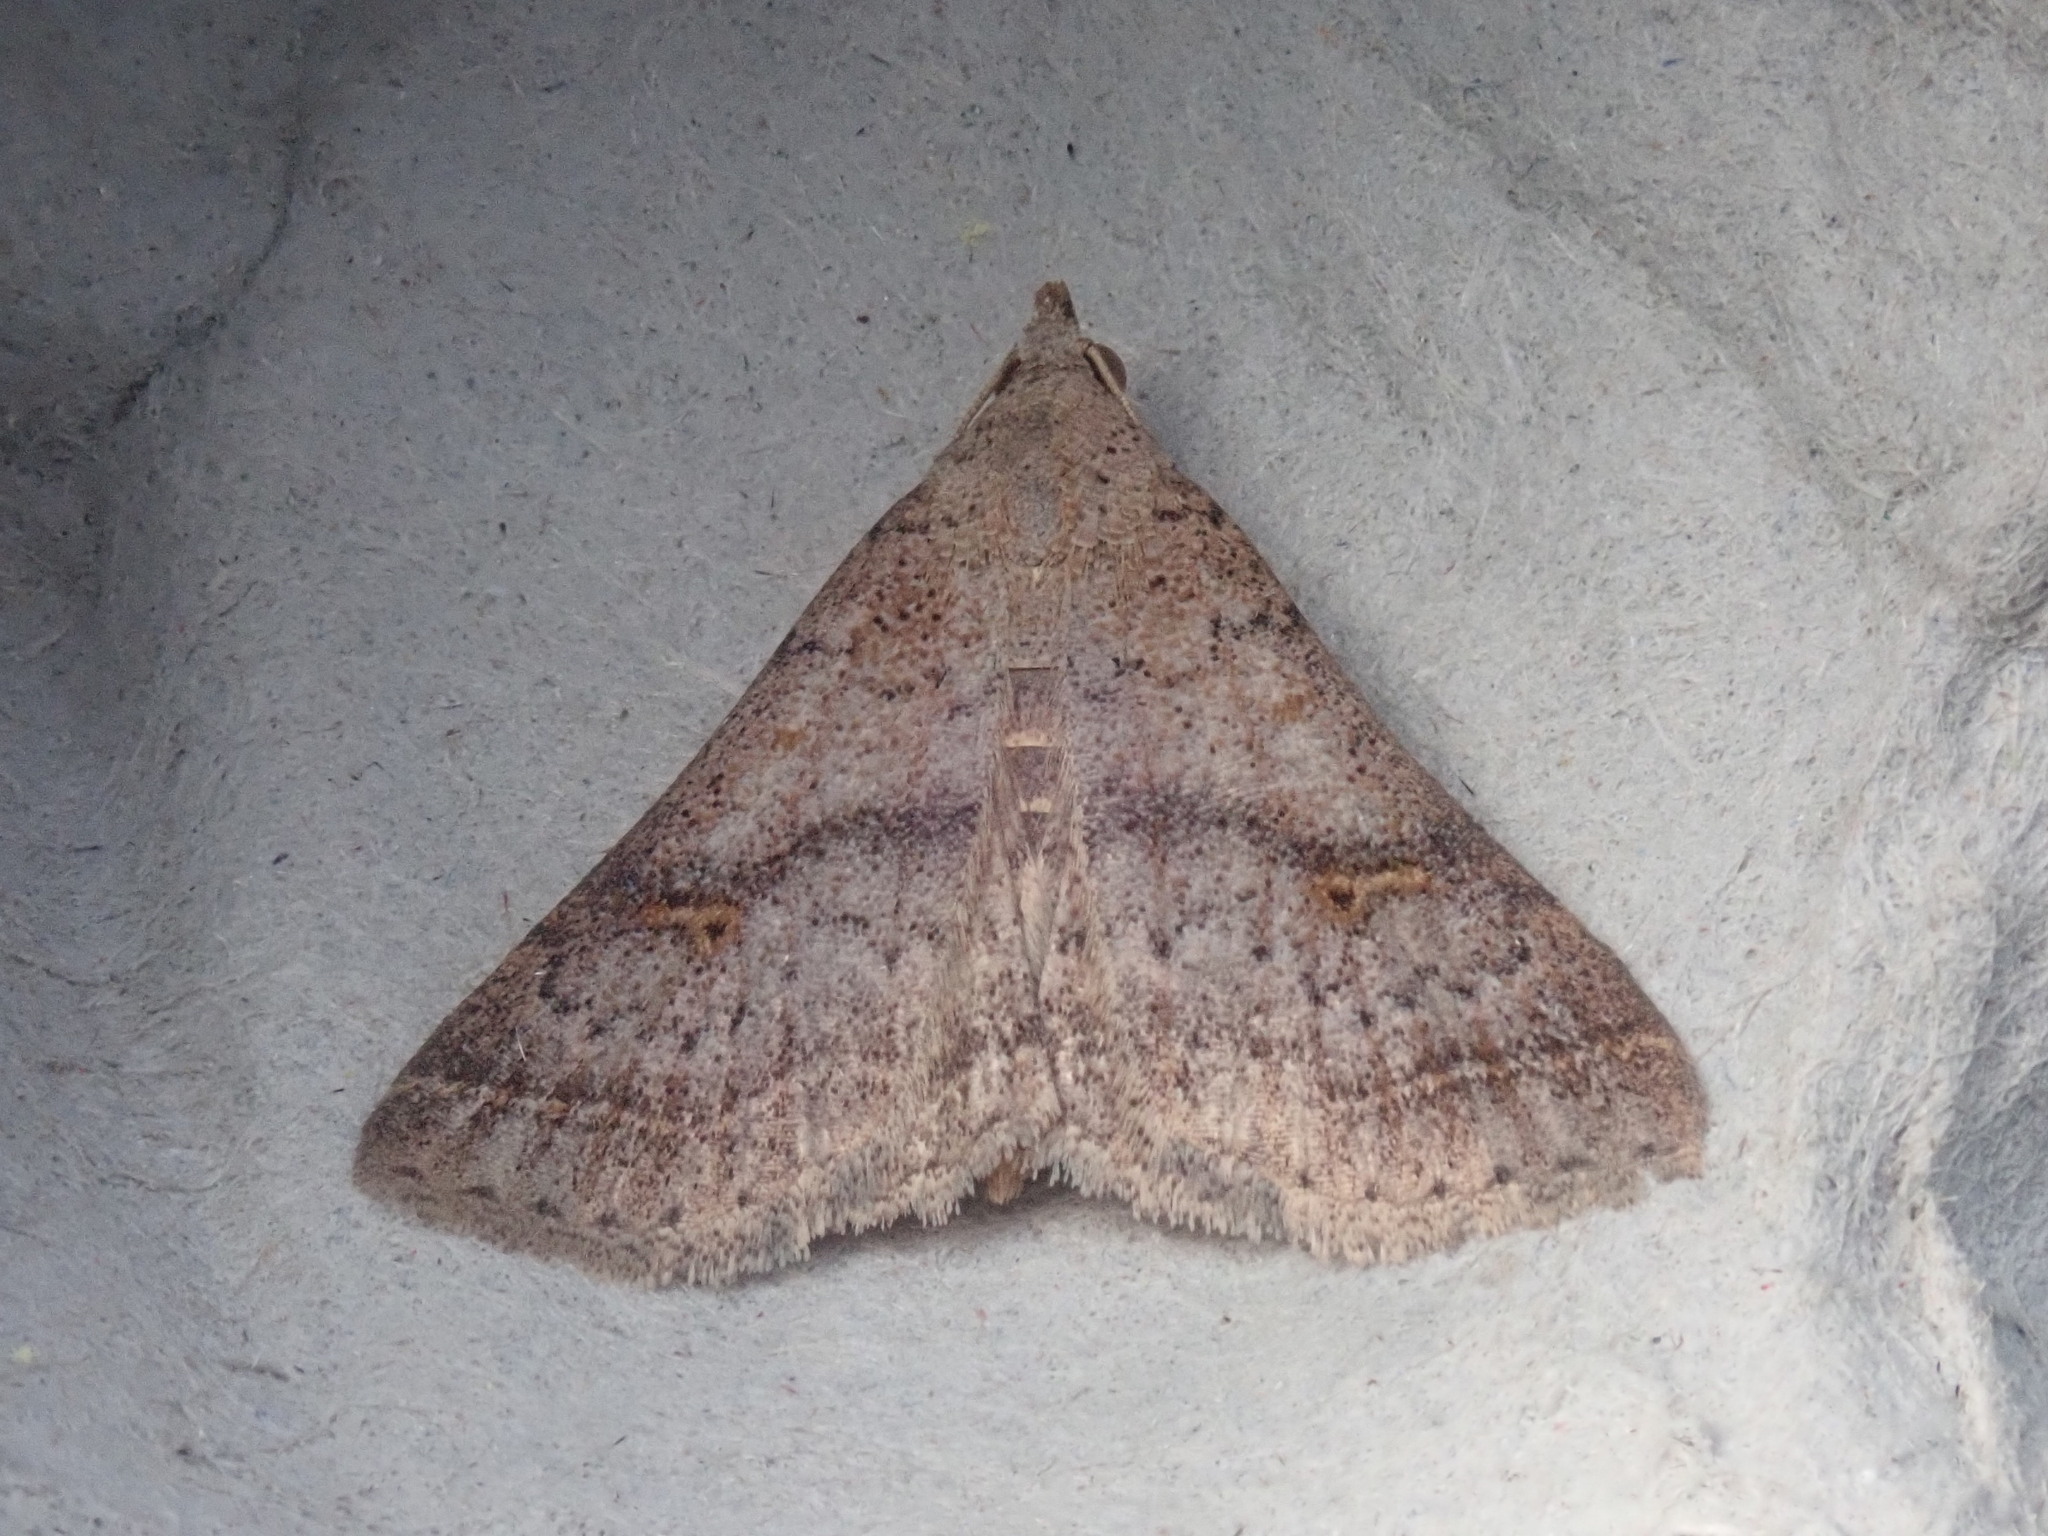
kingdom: Animalia
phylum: Arthropoda
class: Insecta
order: Lepidoptera
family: Erebidae
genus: Bleptina
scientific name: Bleptina caradrinalis
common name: Bent-winged owlet
